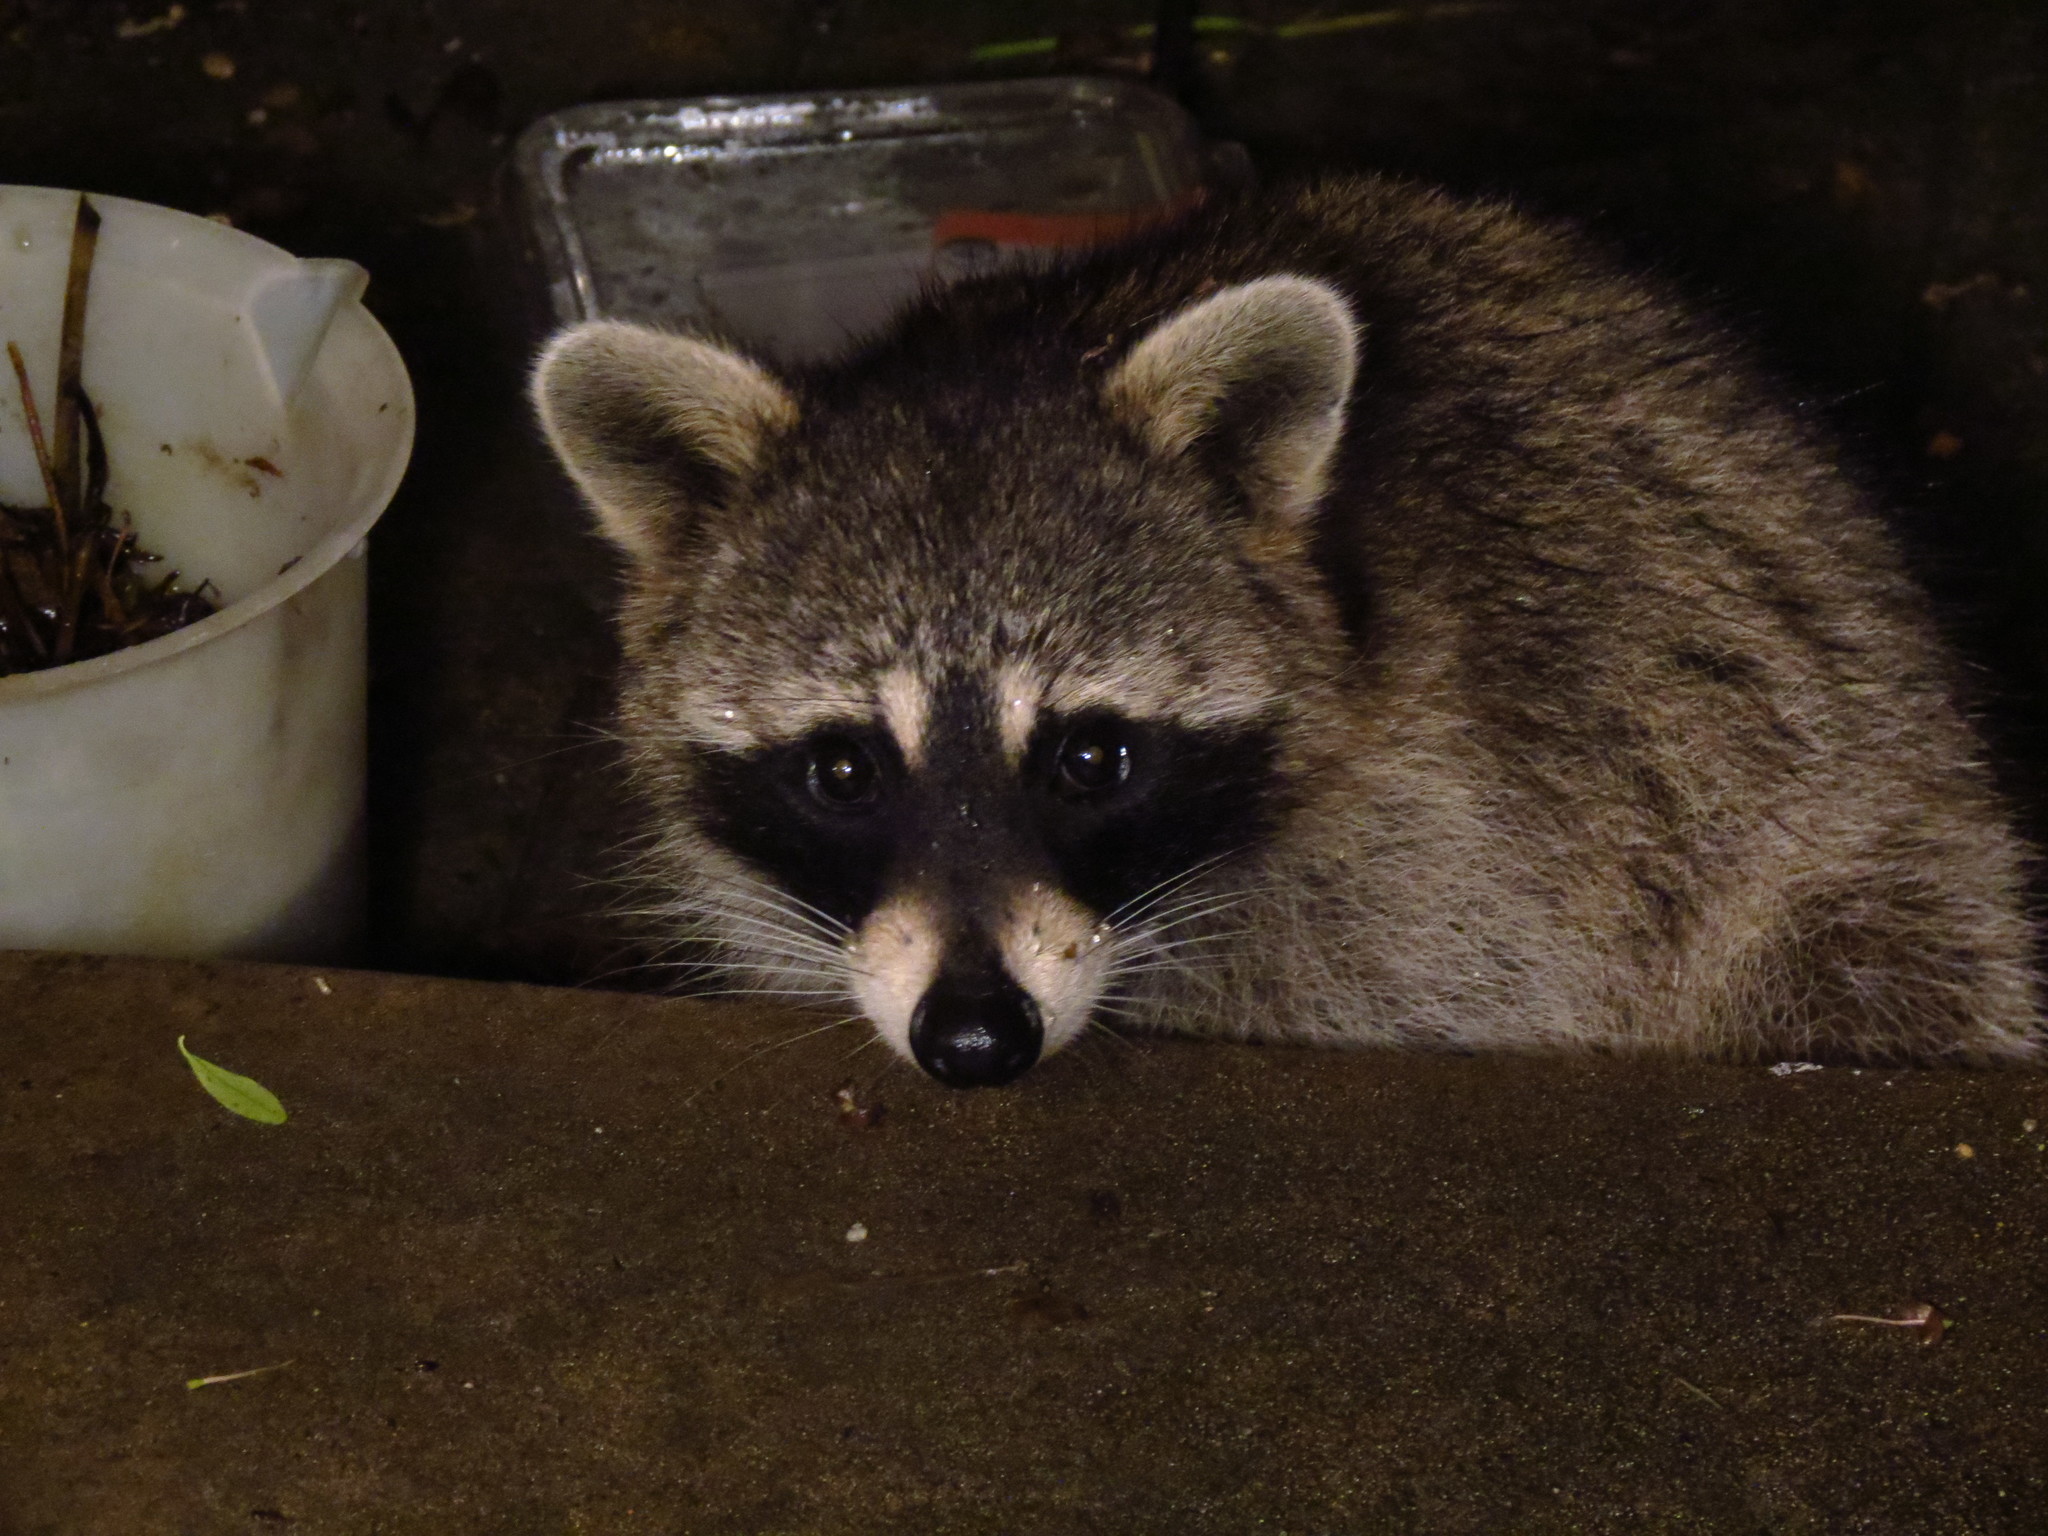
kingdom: Animalia
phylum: Chordata
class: Mammalia
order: Carnivora
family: Procyonidae
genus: Procyon
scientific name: Procyon lotor
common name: Raccoon
